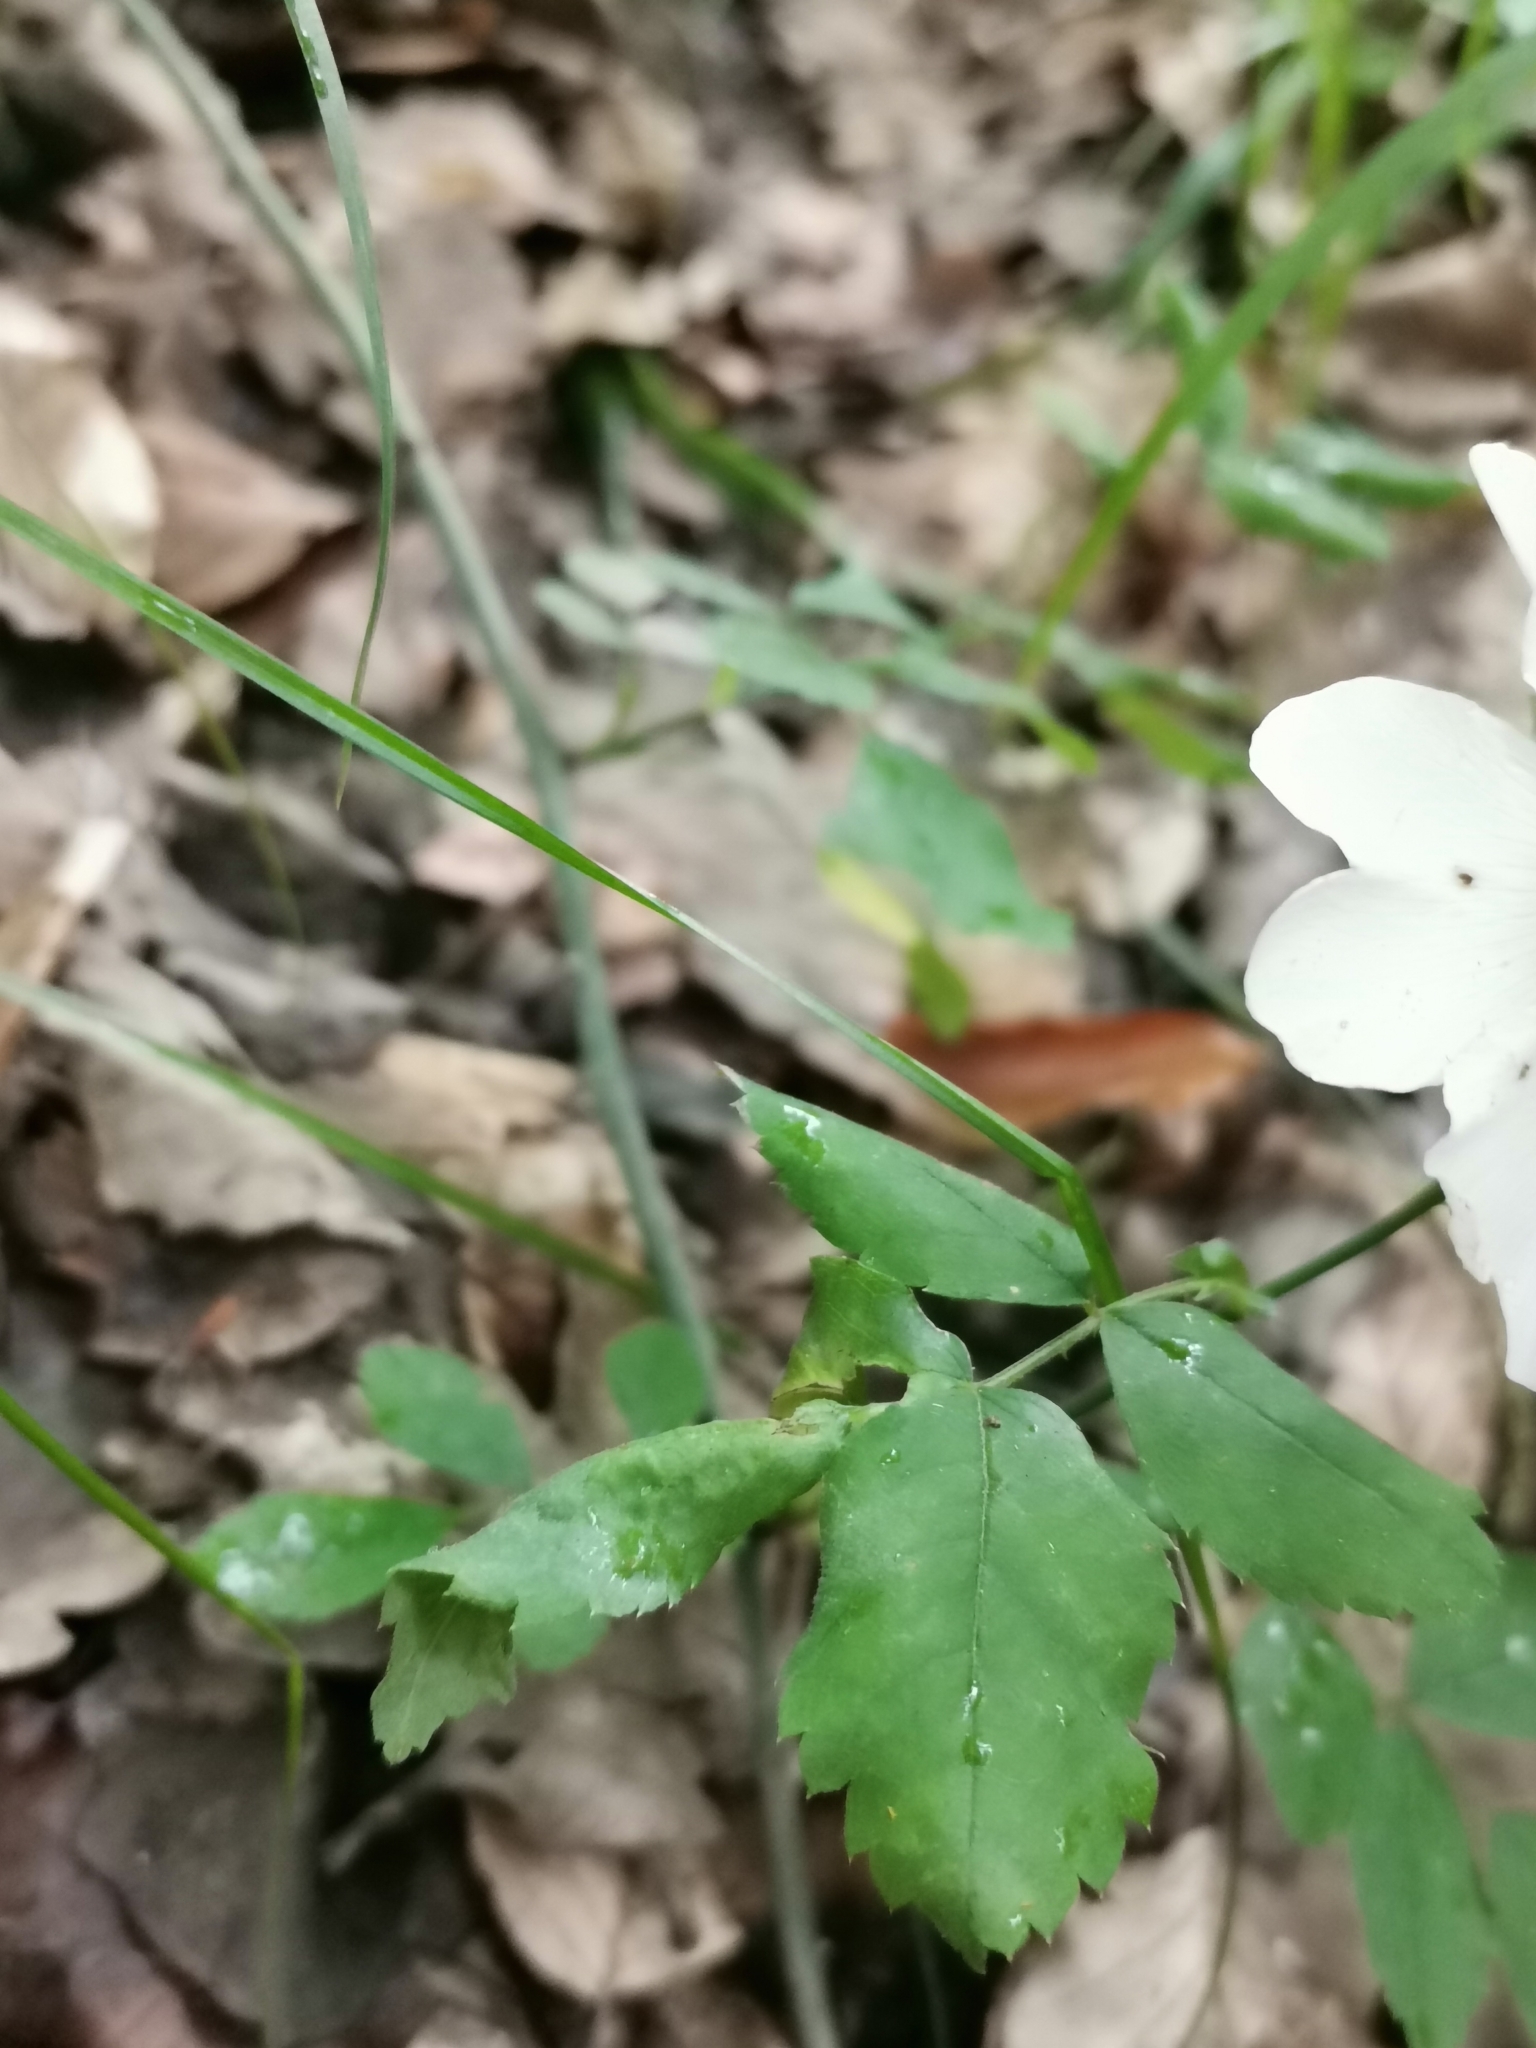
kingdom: Plantae
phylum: Tracheophyta
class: Magnoliopsida
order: Rosales
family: Rosaceae
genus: Rosa
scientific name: Rosa arvensis
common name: Field rose
